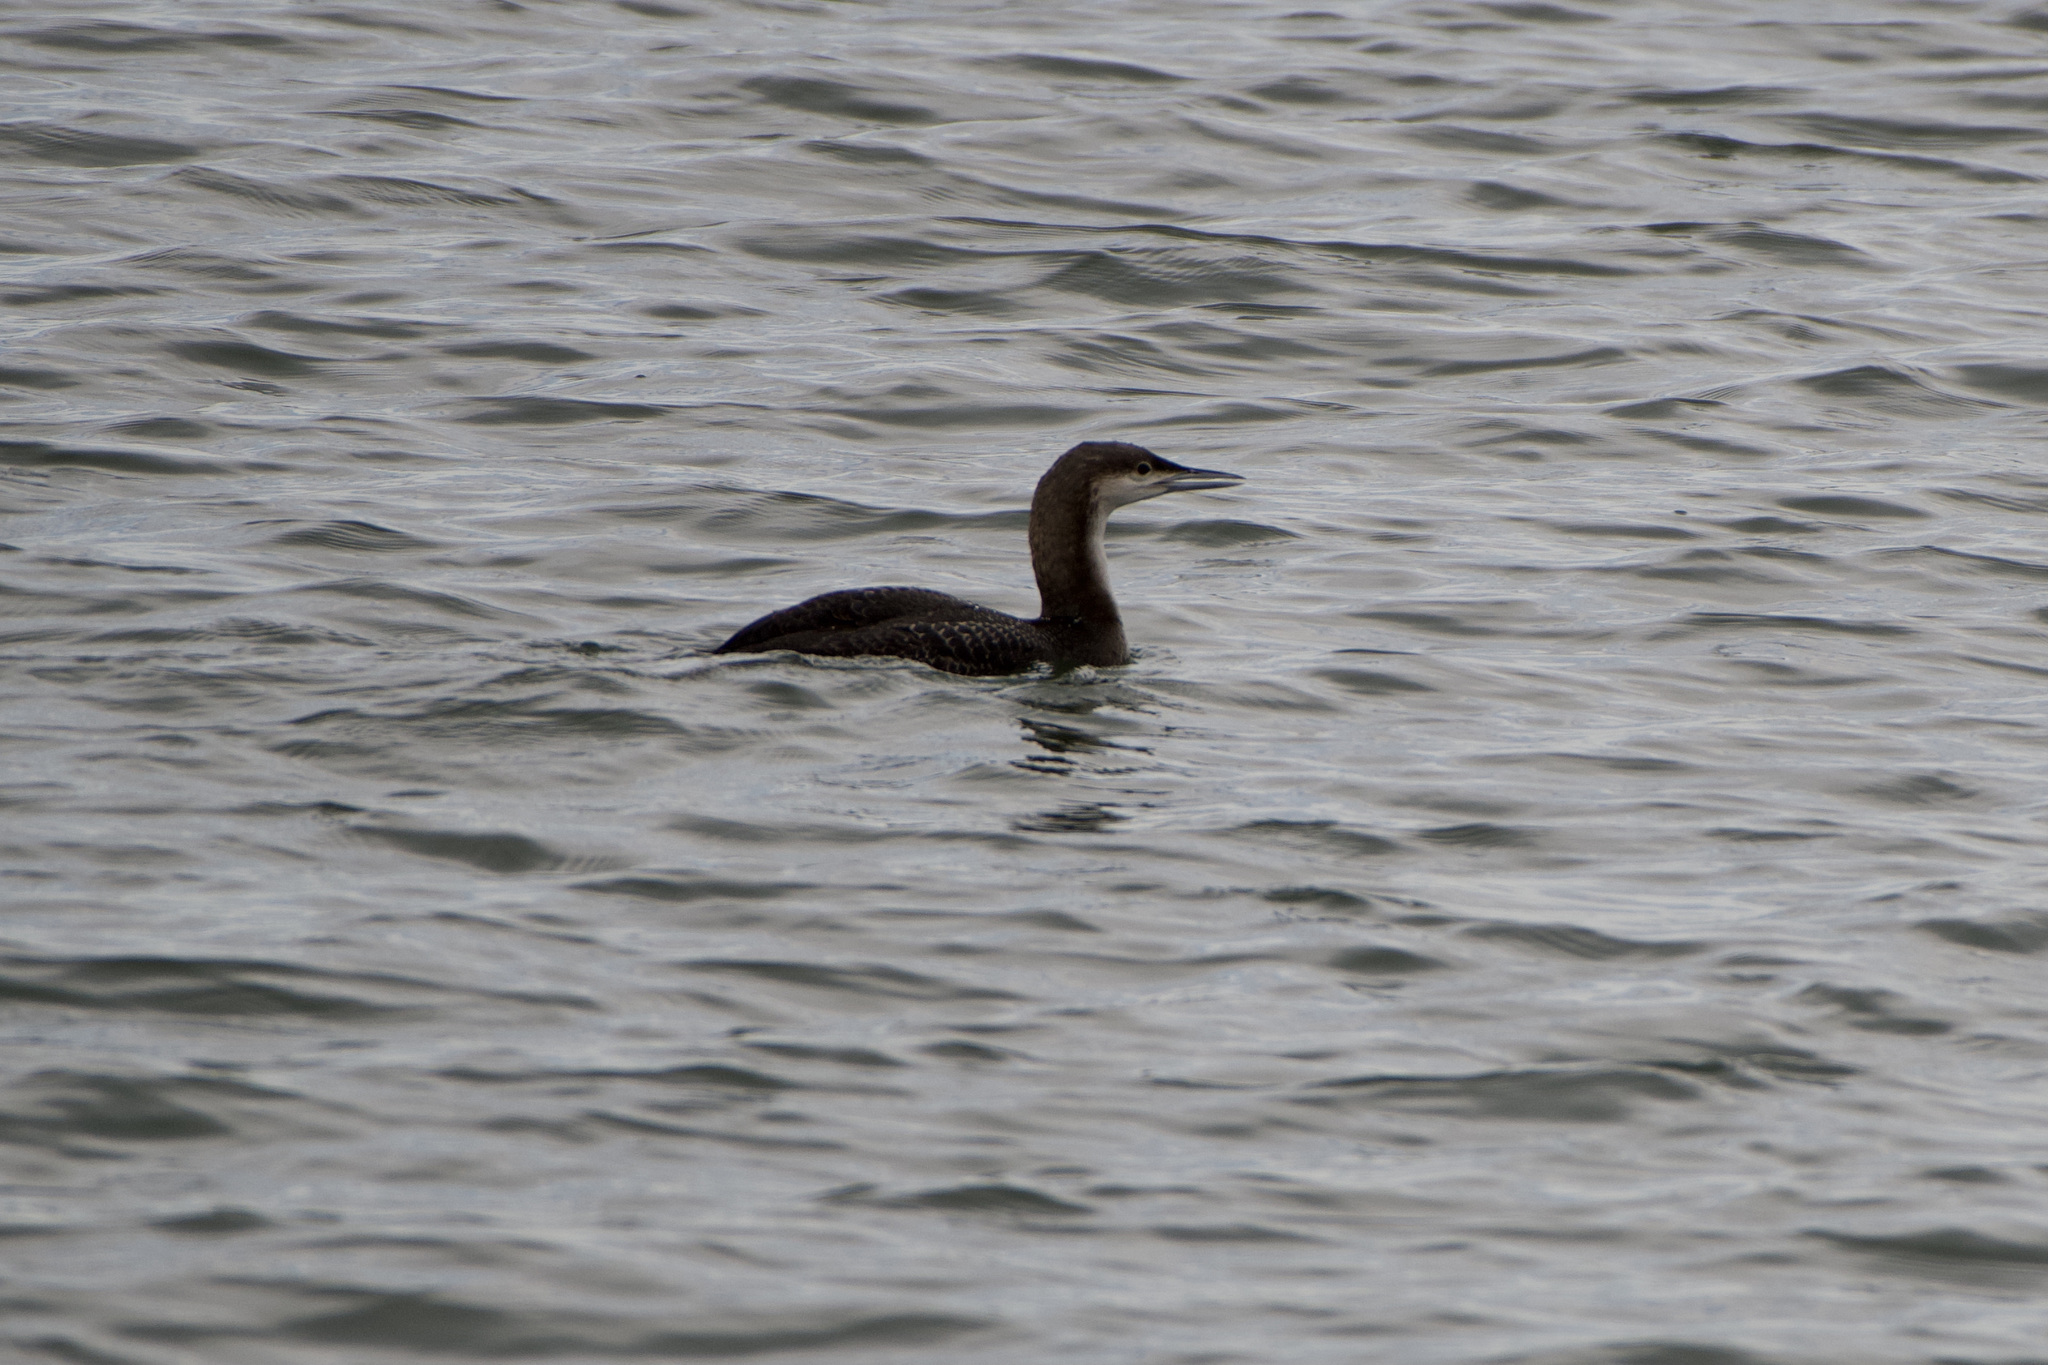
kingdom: Animalia
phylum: Chordata
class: Aves
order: Gaviiformes
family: Gaviidae
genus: Gavia
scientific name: Gavia pacifica
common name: Pacific loon
